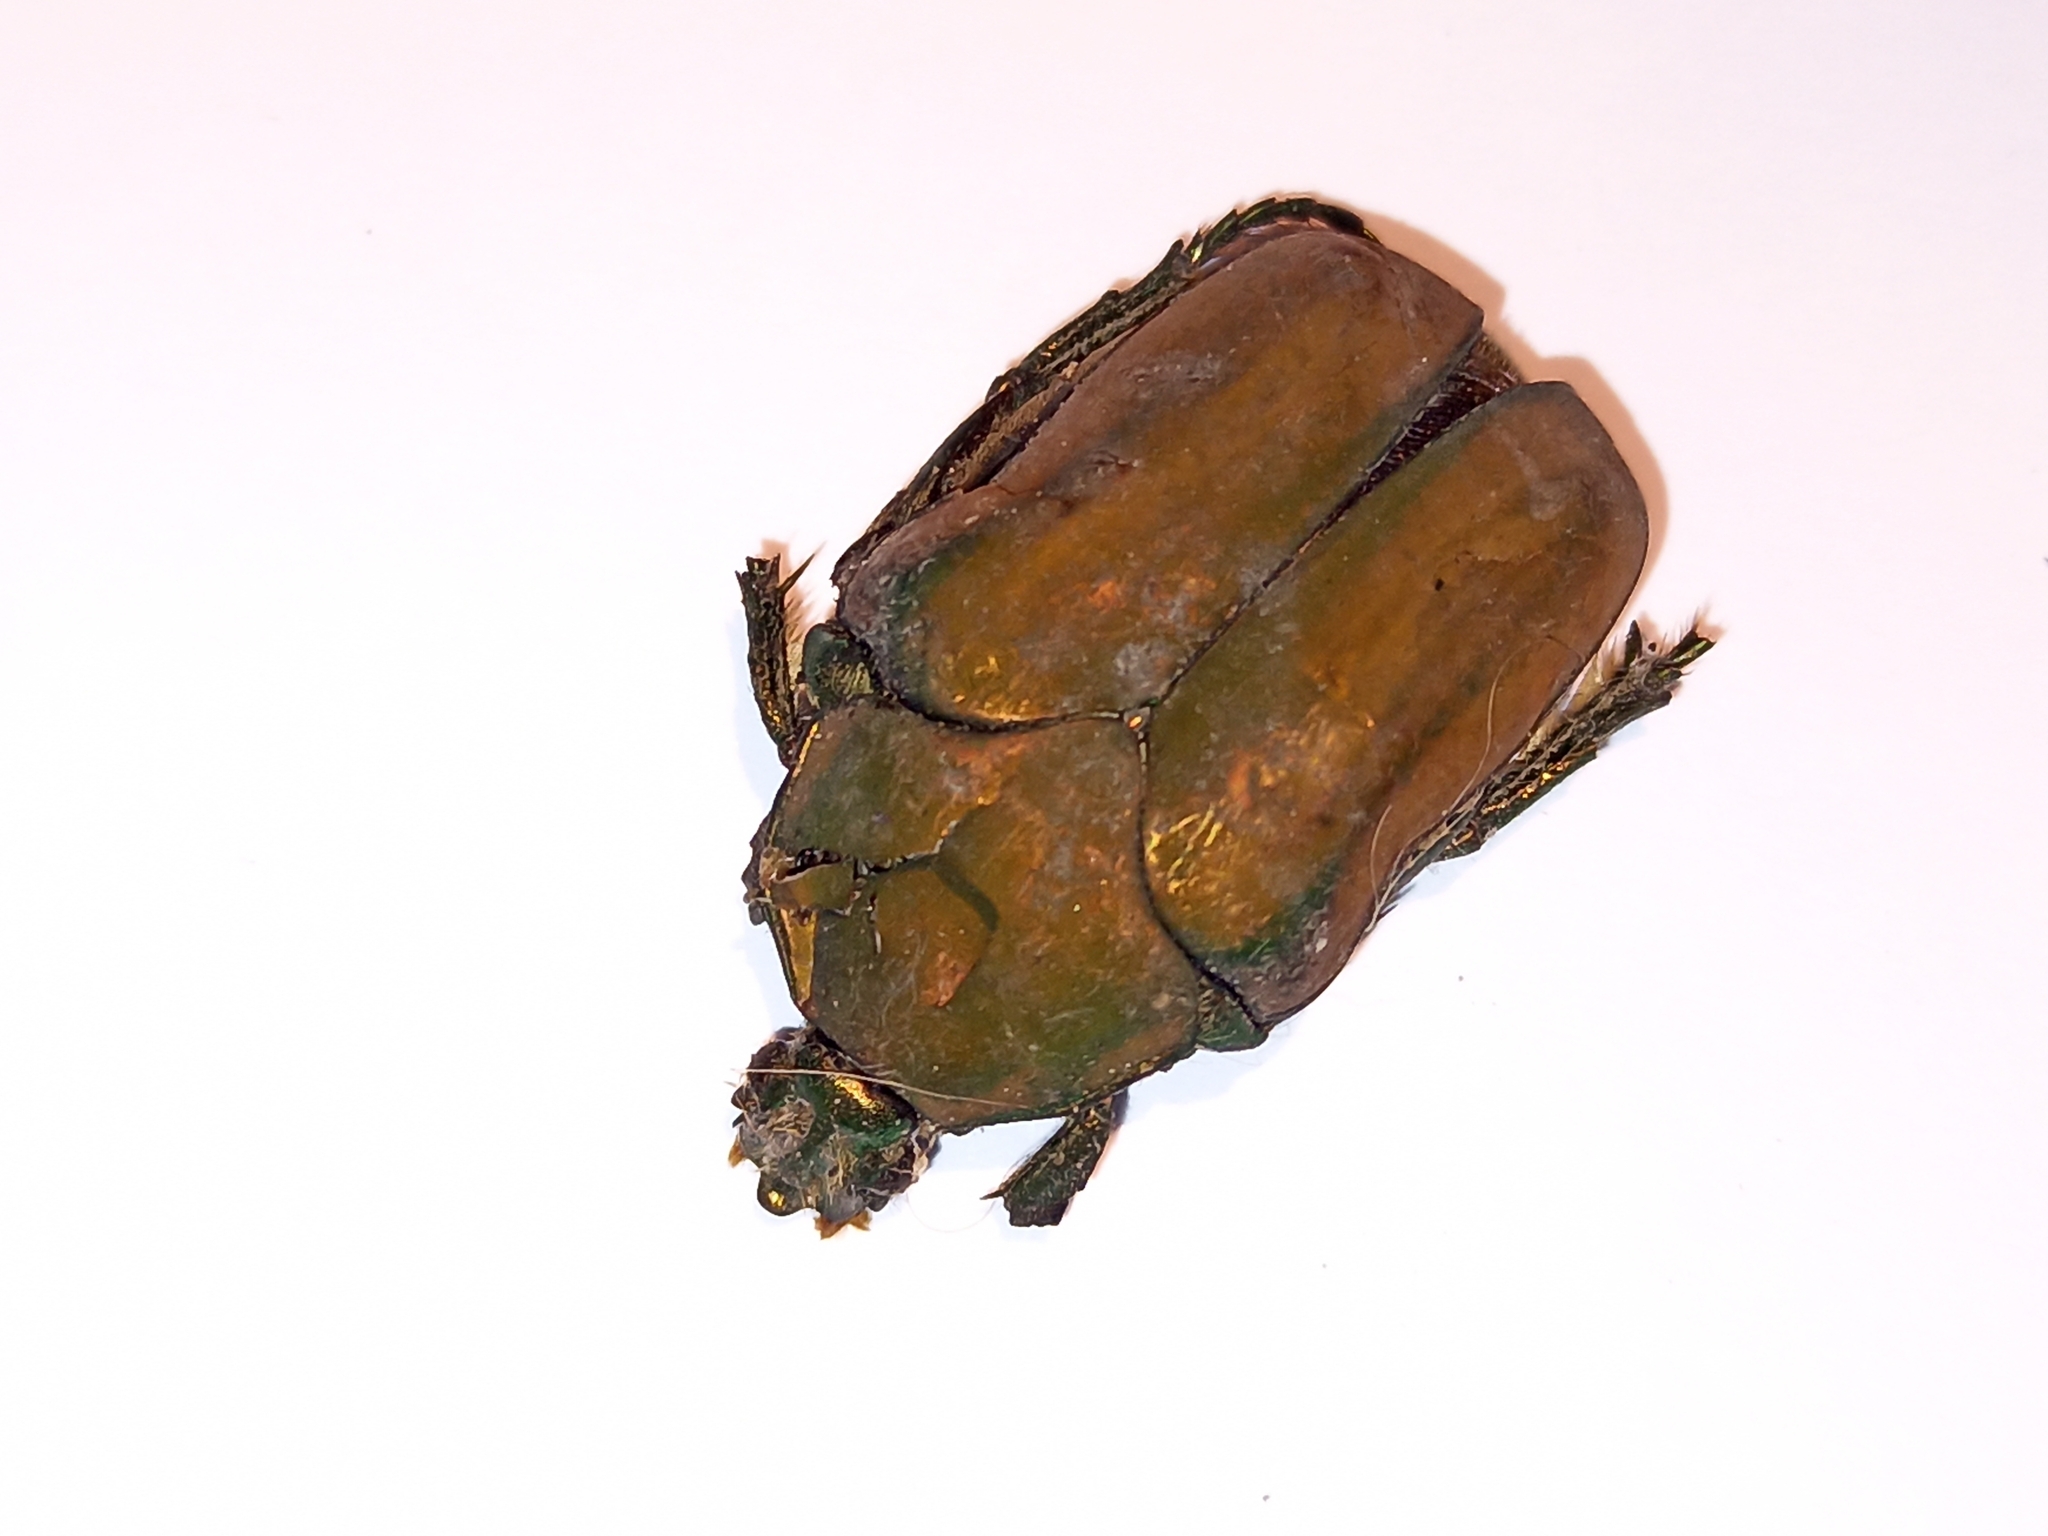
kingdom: Animalia
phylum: Arthropoda
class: Insecta
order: Coleoptera
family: Scarabaeidae
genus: Cotinis
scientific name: Cotinis mutabilis
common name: Figeater beetle
